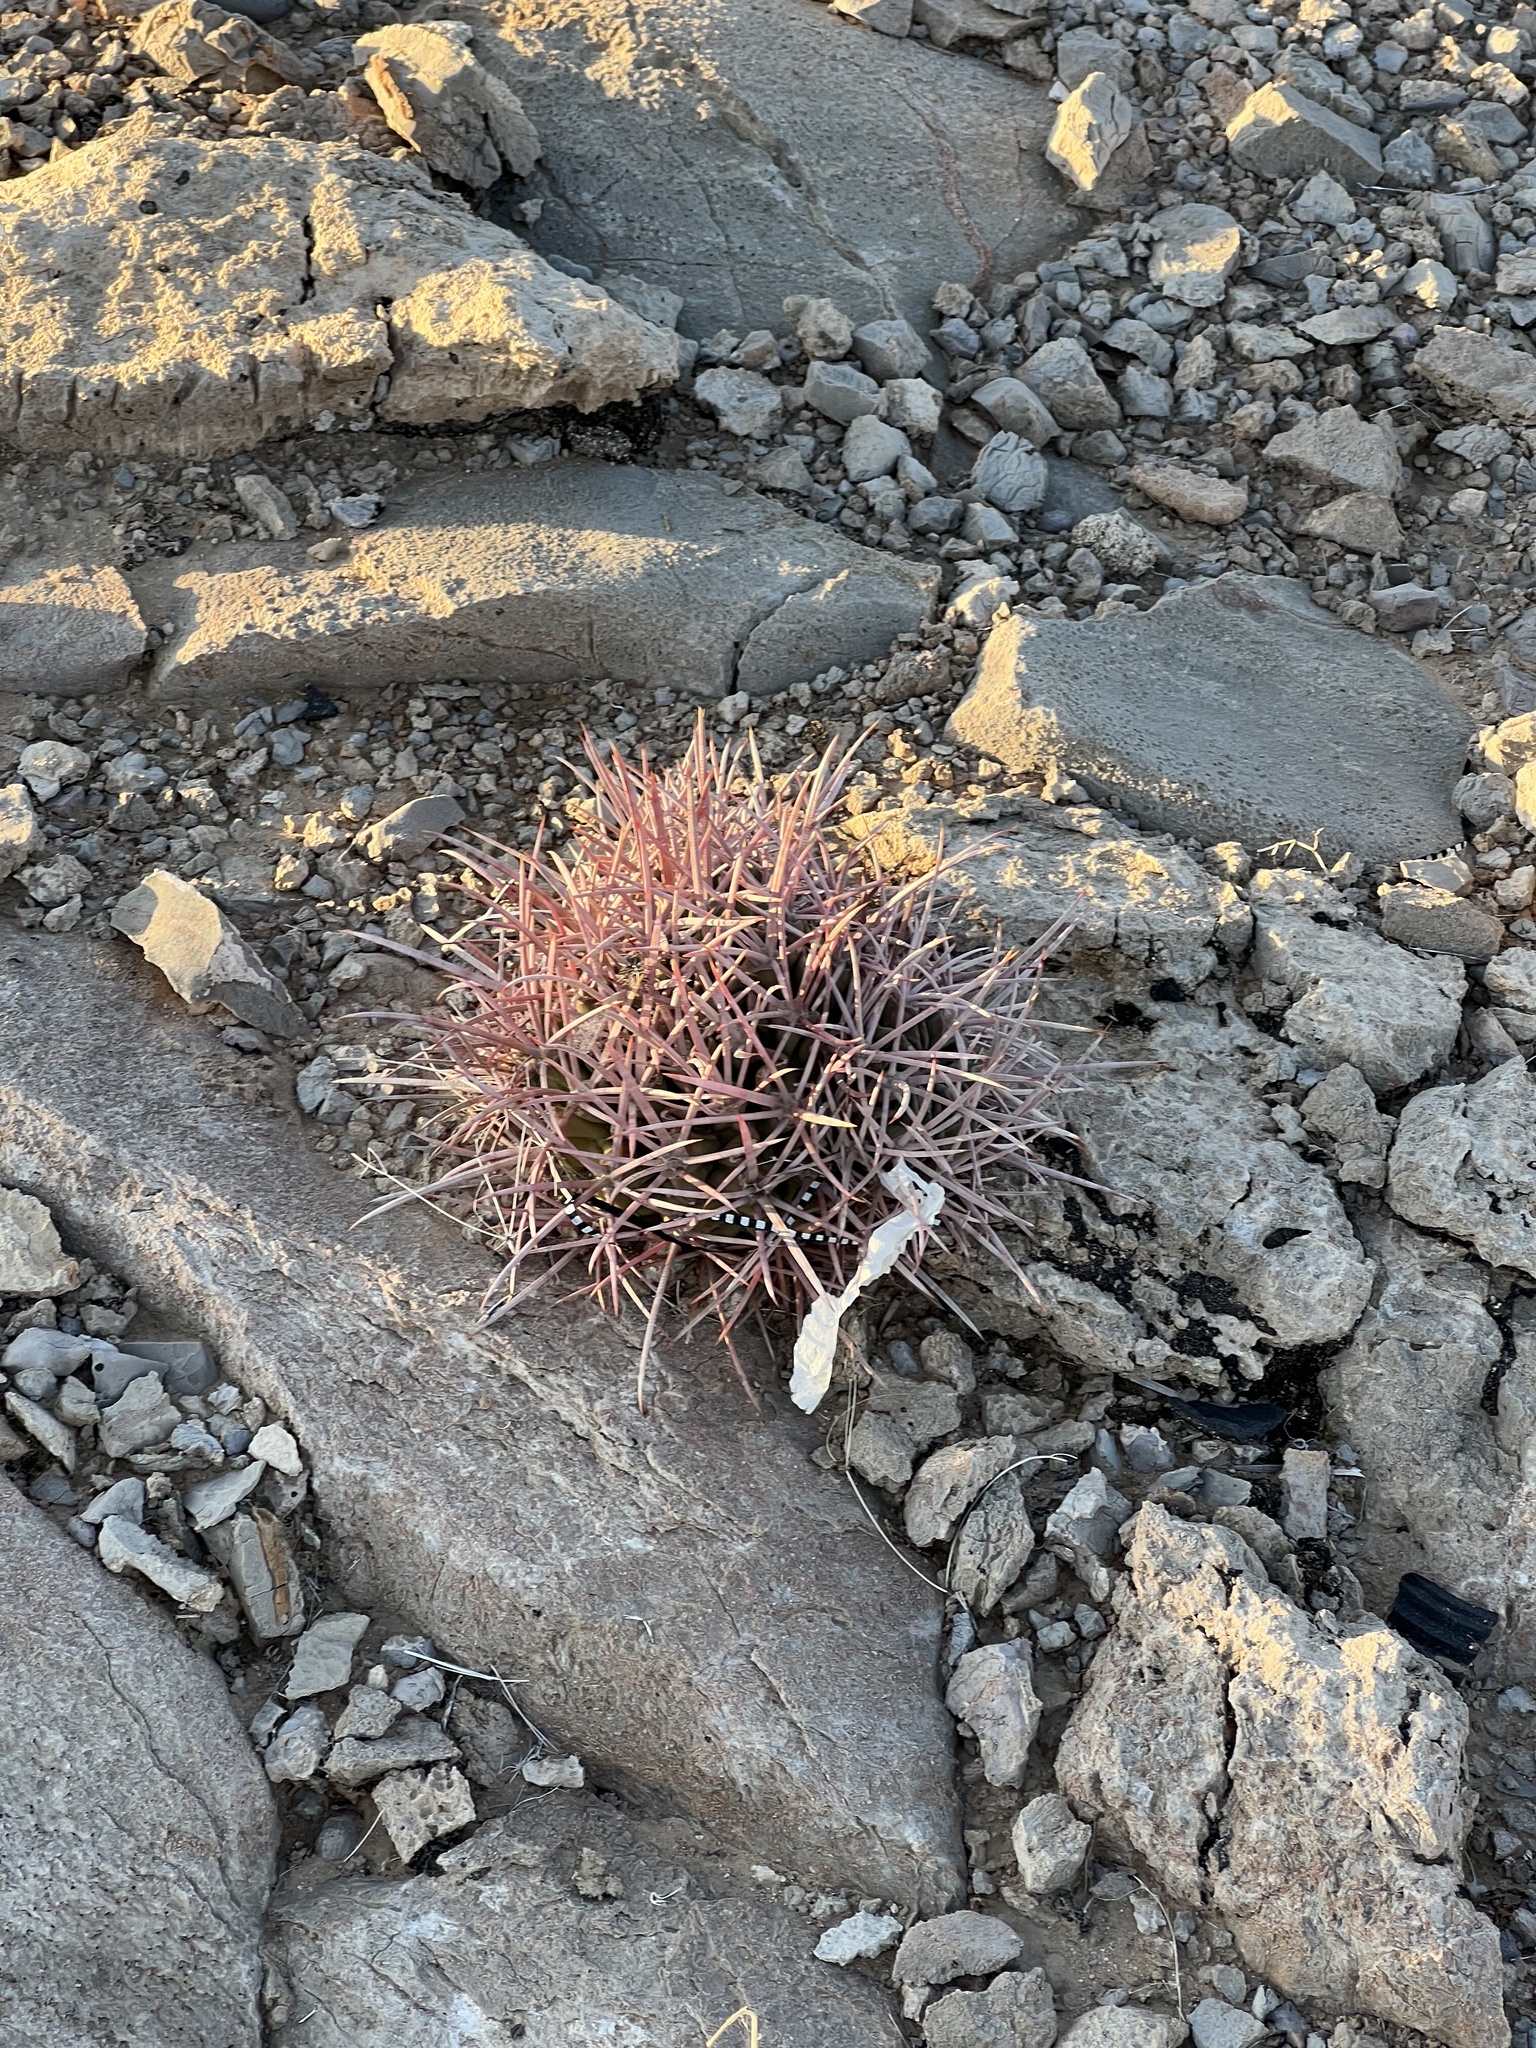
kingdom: Plantae
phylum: Tracheophyta
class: Magnoliopsida
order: Caryophyllales
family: Cactaceae
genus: Echinocactus
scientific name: Echinocactus polycephalus
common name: Cottontop cactus
